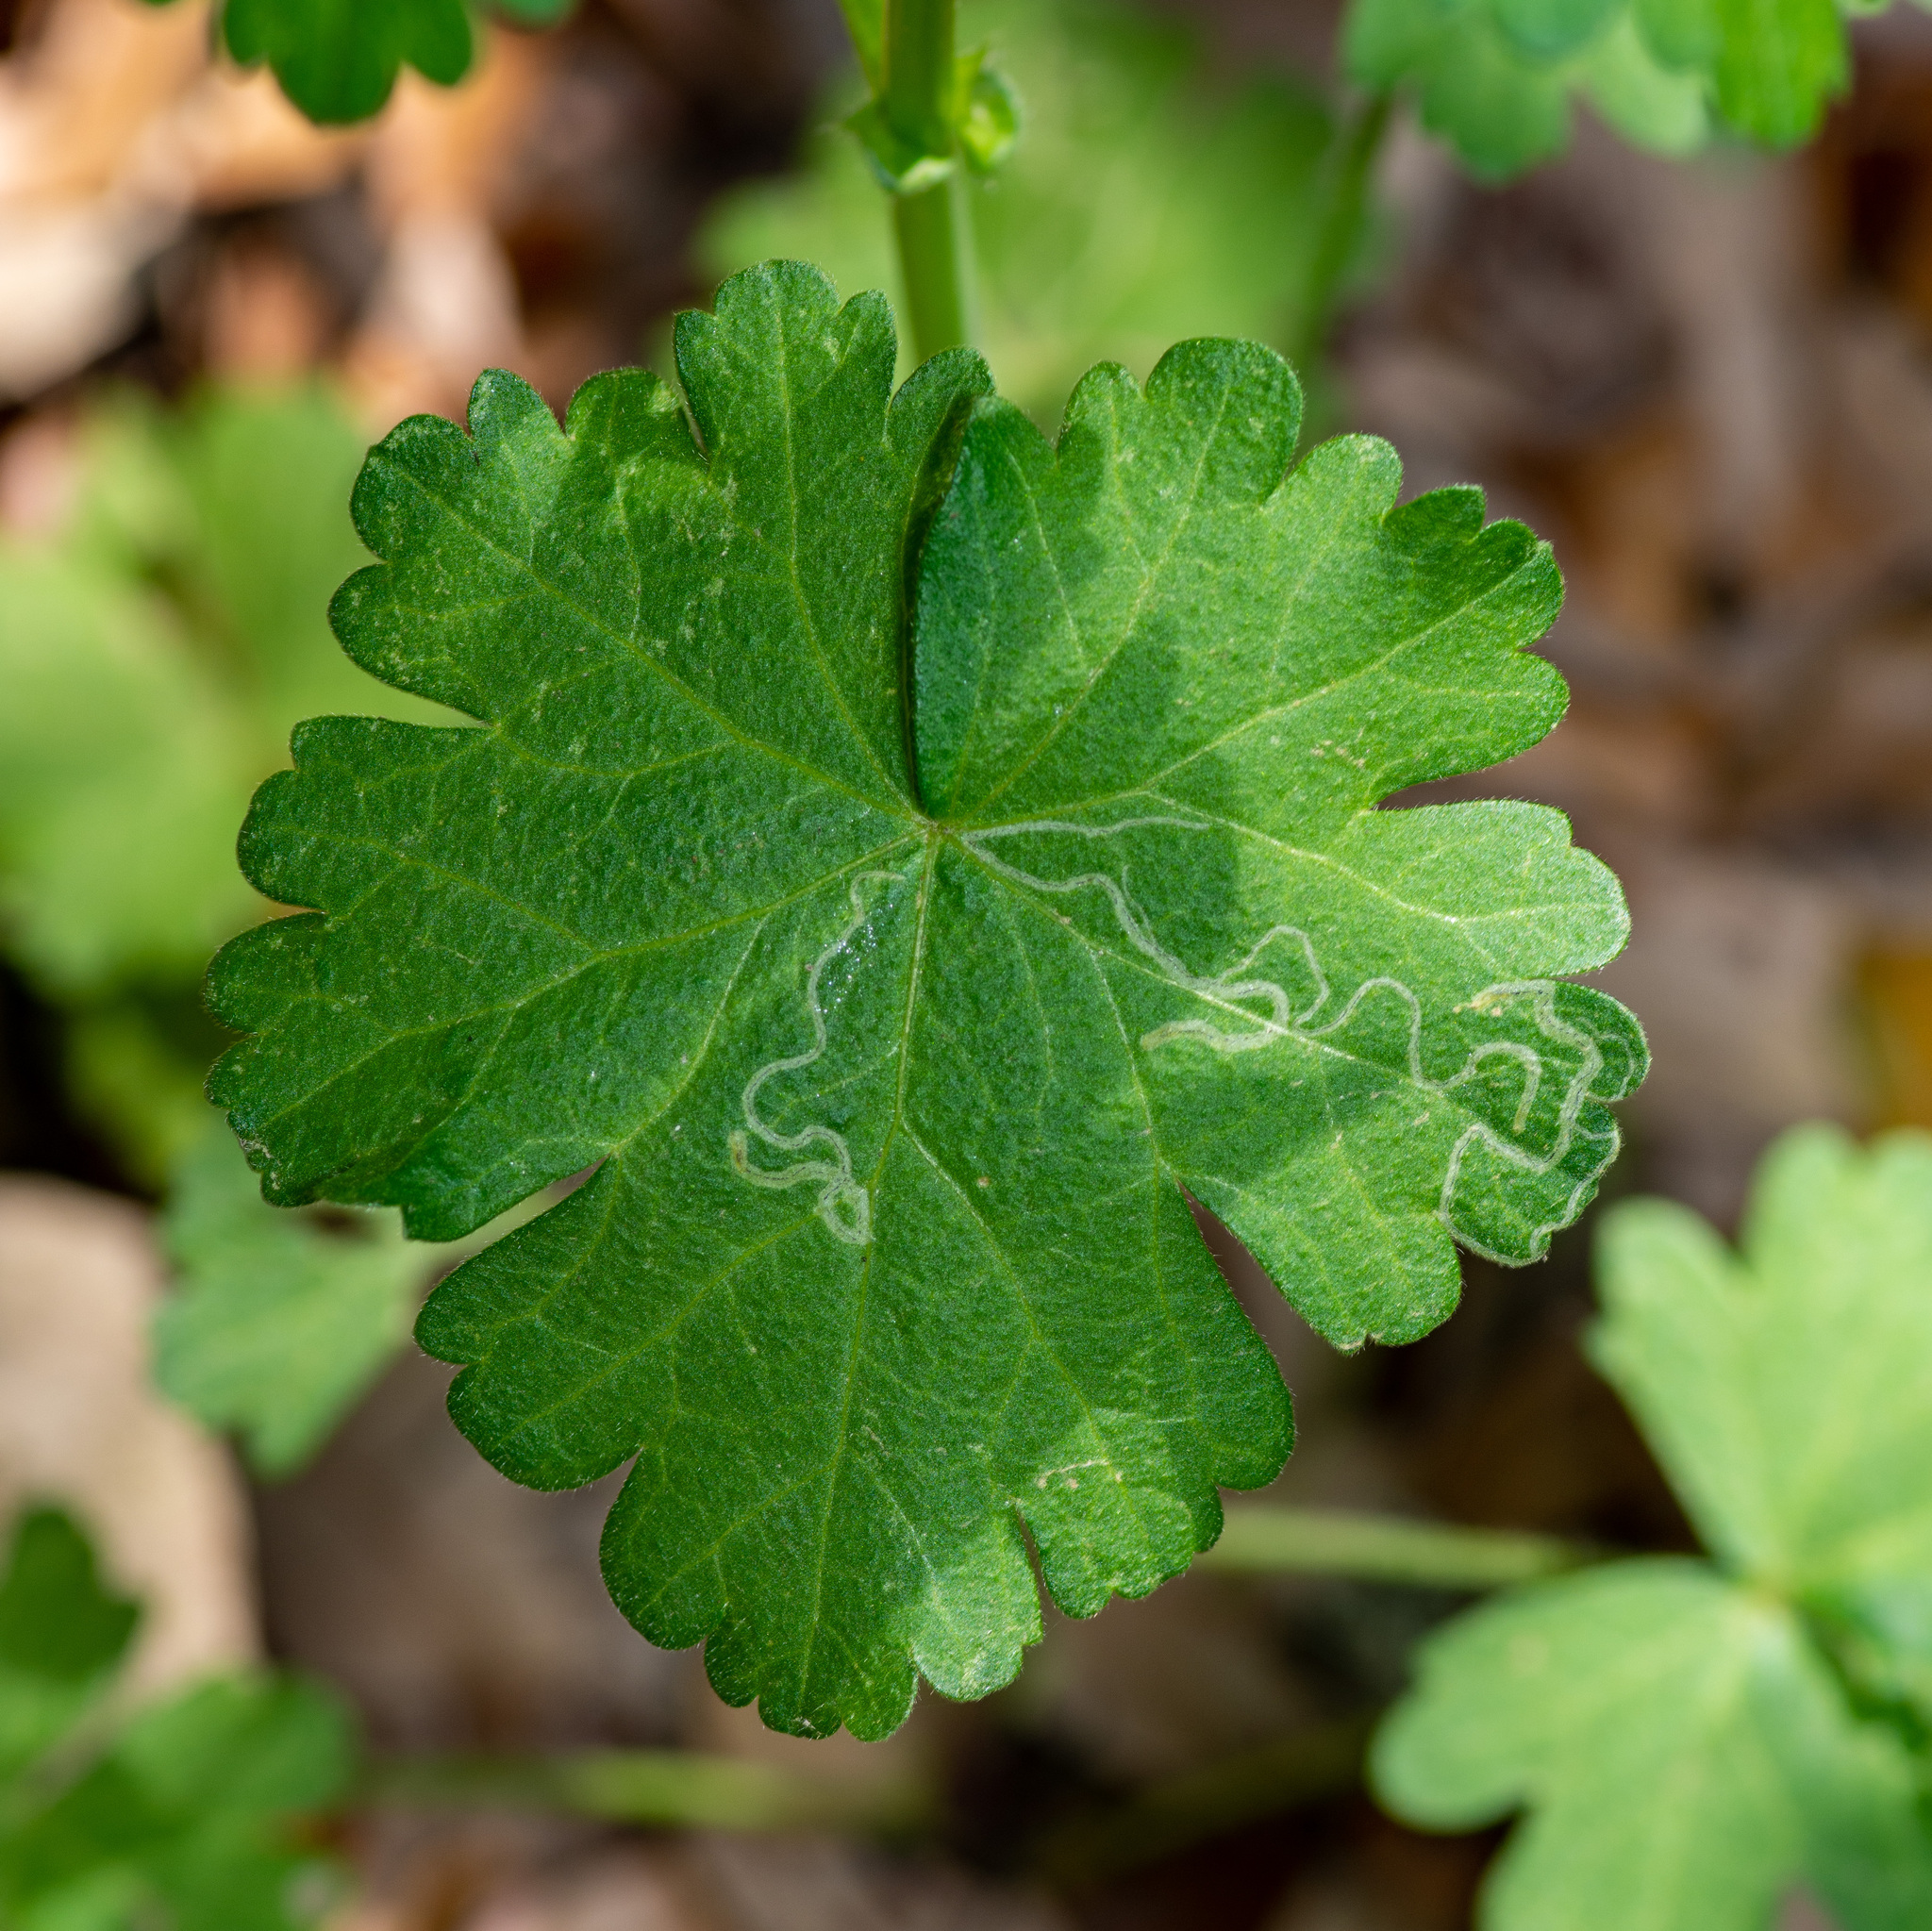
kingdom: Animalia
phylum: Arthropoda
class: Insecta
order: Diptera
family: Agromyzidae
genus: Calycomyza
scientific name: Calycomyza malvae
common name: Mallow leaf miner
